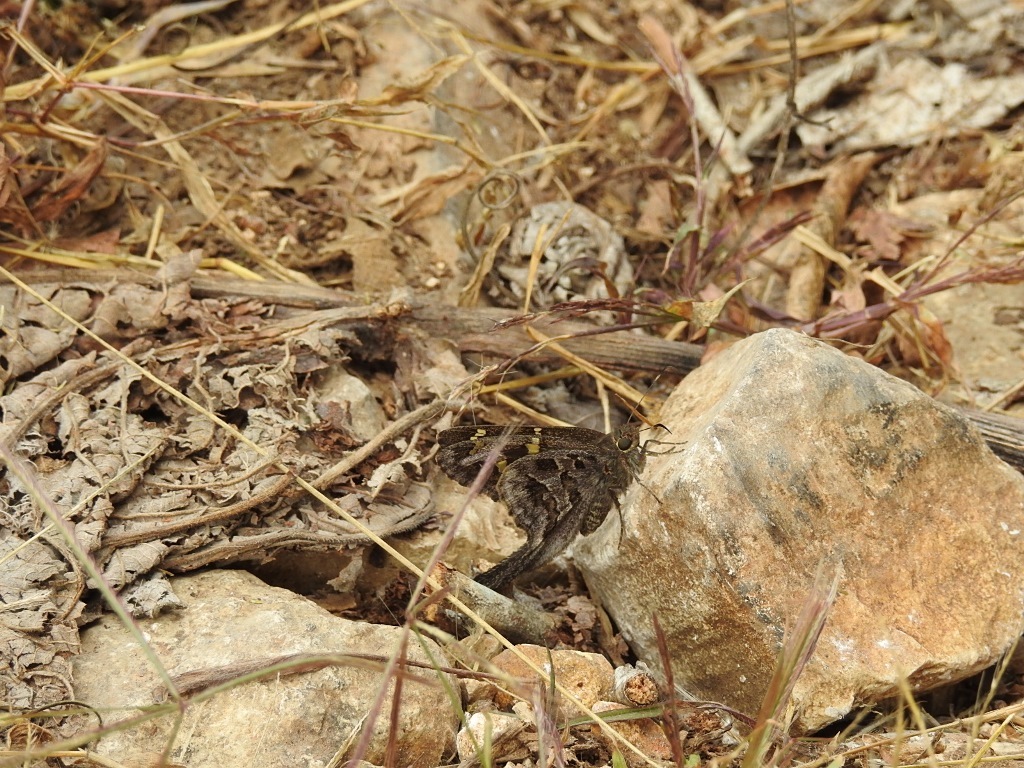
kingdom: Animalia
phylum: Arthropoda
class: Insecta
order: Lepidoptera
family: Hesperiidae
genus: Thorybes
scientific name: Thorybes
